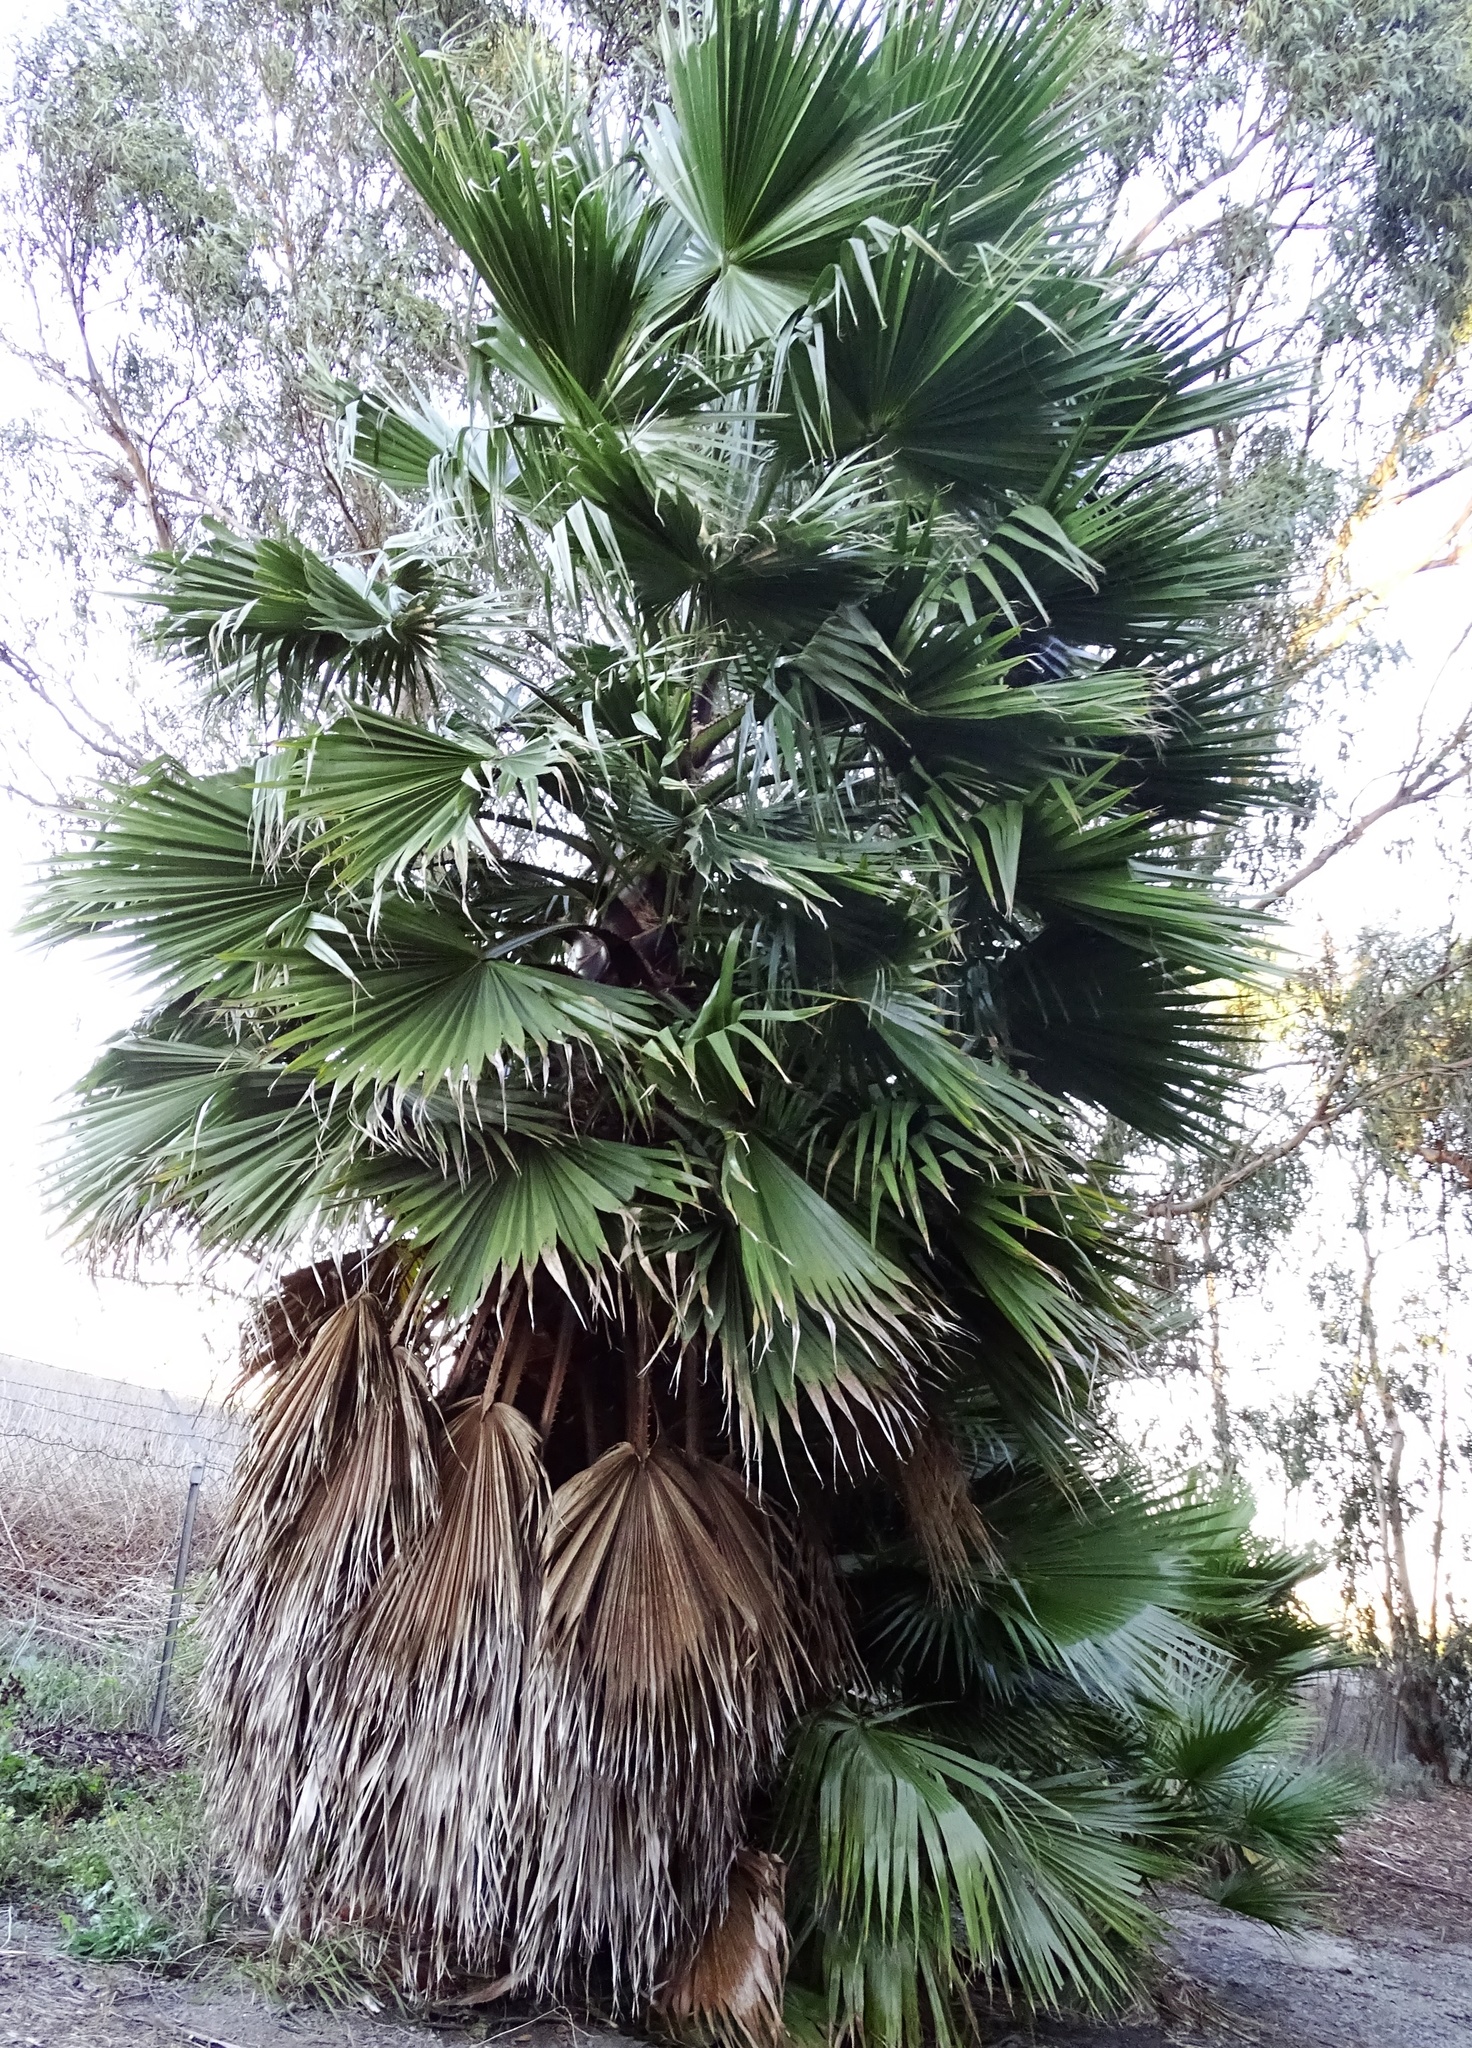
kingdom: Plantae
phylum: Tracheophyta
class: Liliopsida
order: Arecales
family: Arecaceae
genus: Washingtonia
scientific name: Washingtonia robusta
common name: Mexican fan palm
